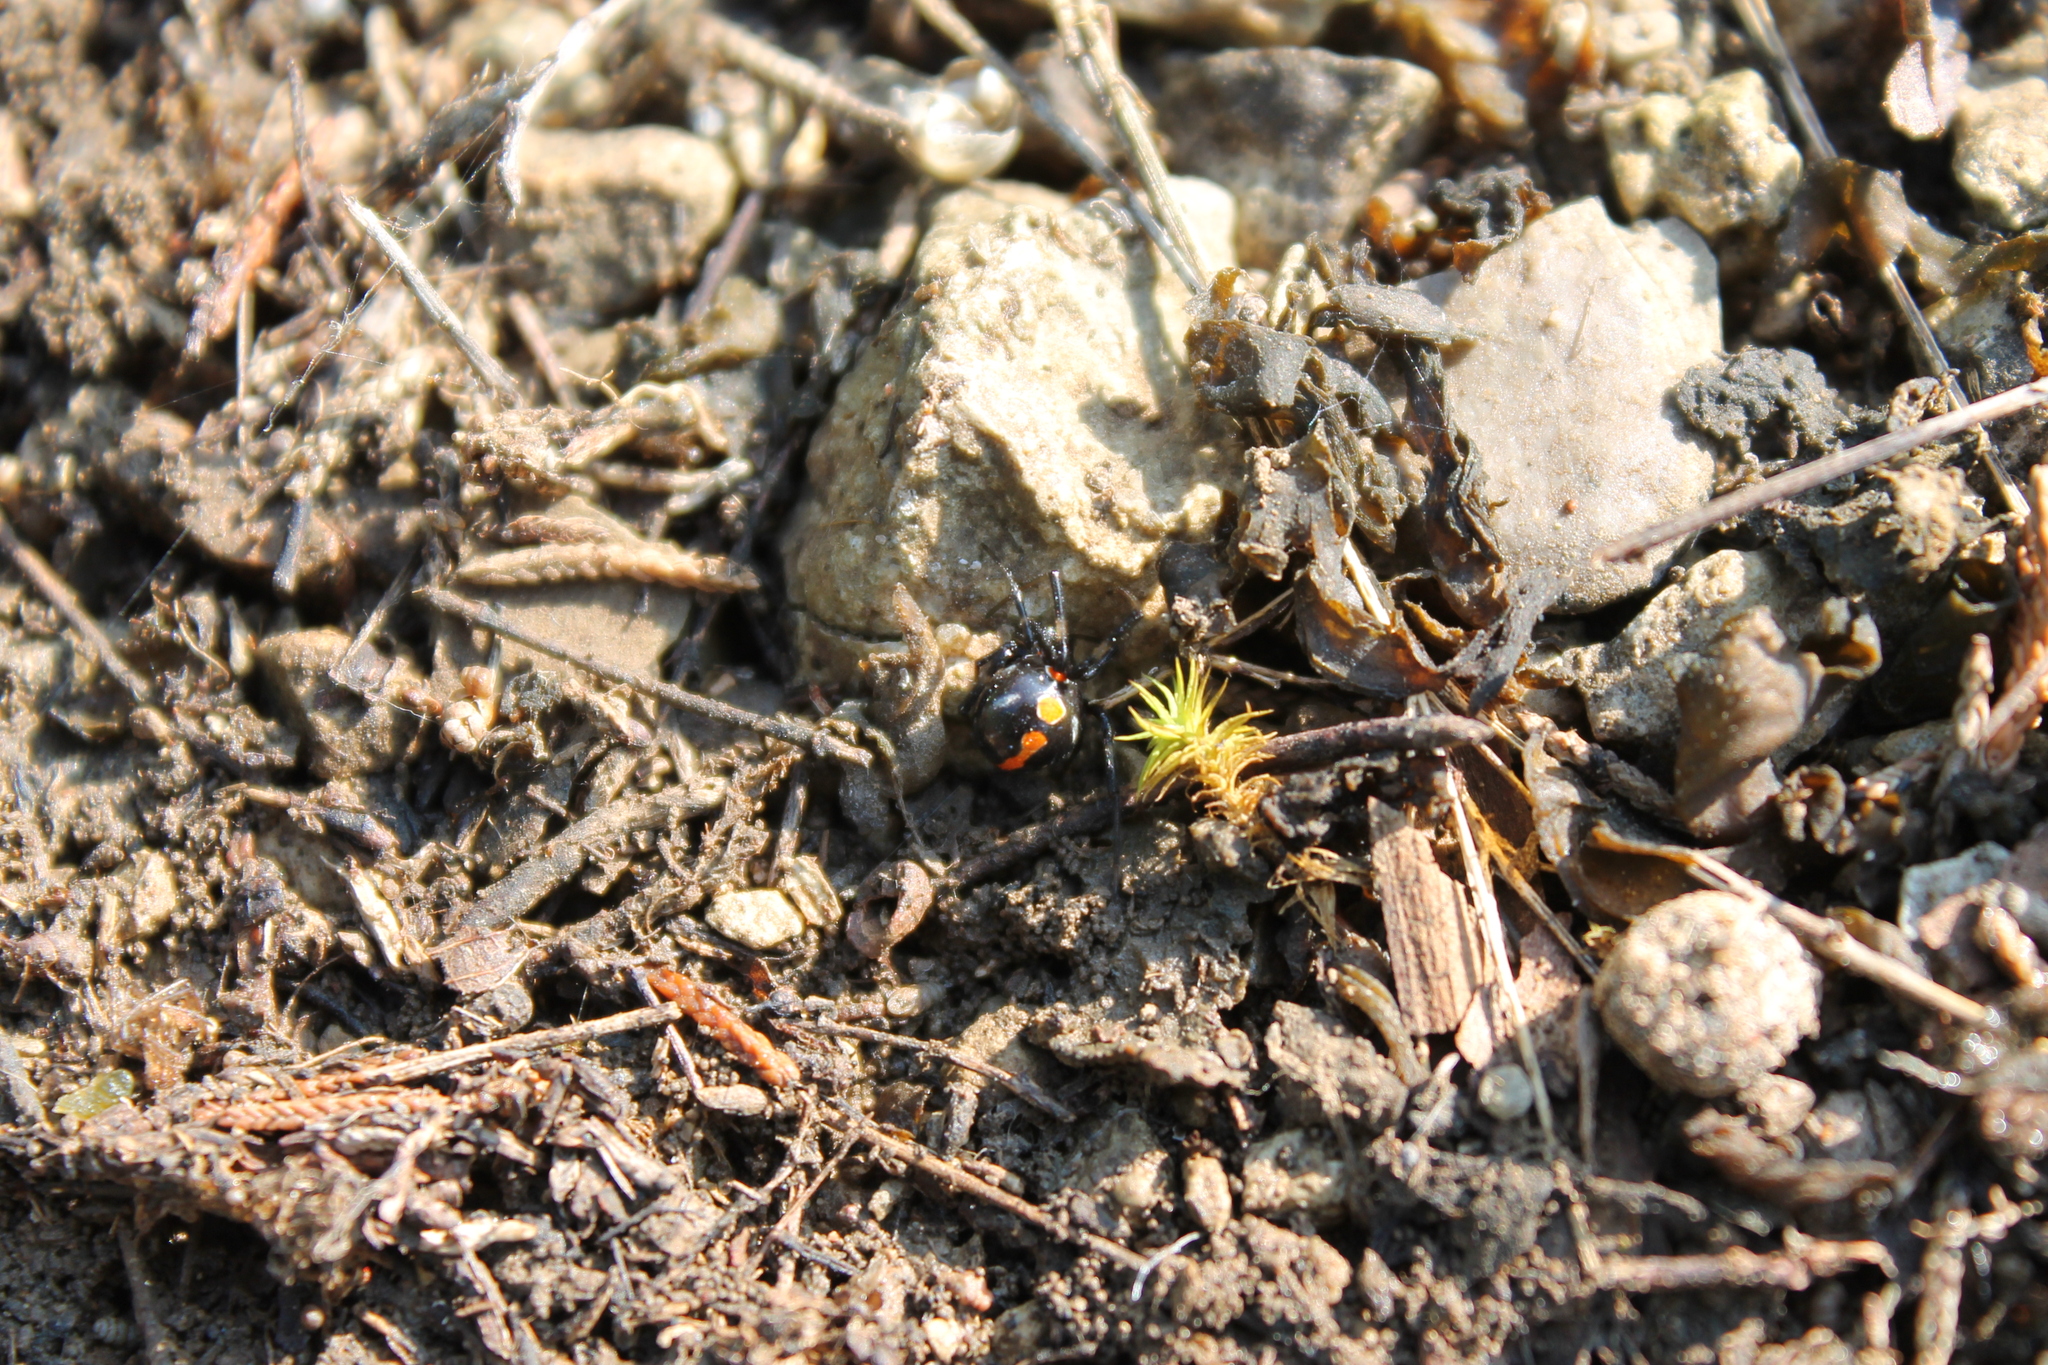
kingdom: Animalia
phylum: Arthropoda
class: Arachnida
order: Araneae
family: Theridiidae
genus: Latrodectus
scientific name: Latrodectus mactans
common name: Cobweb spiders
